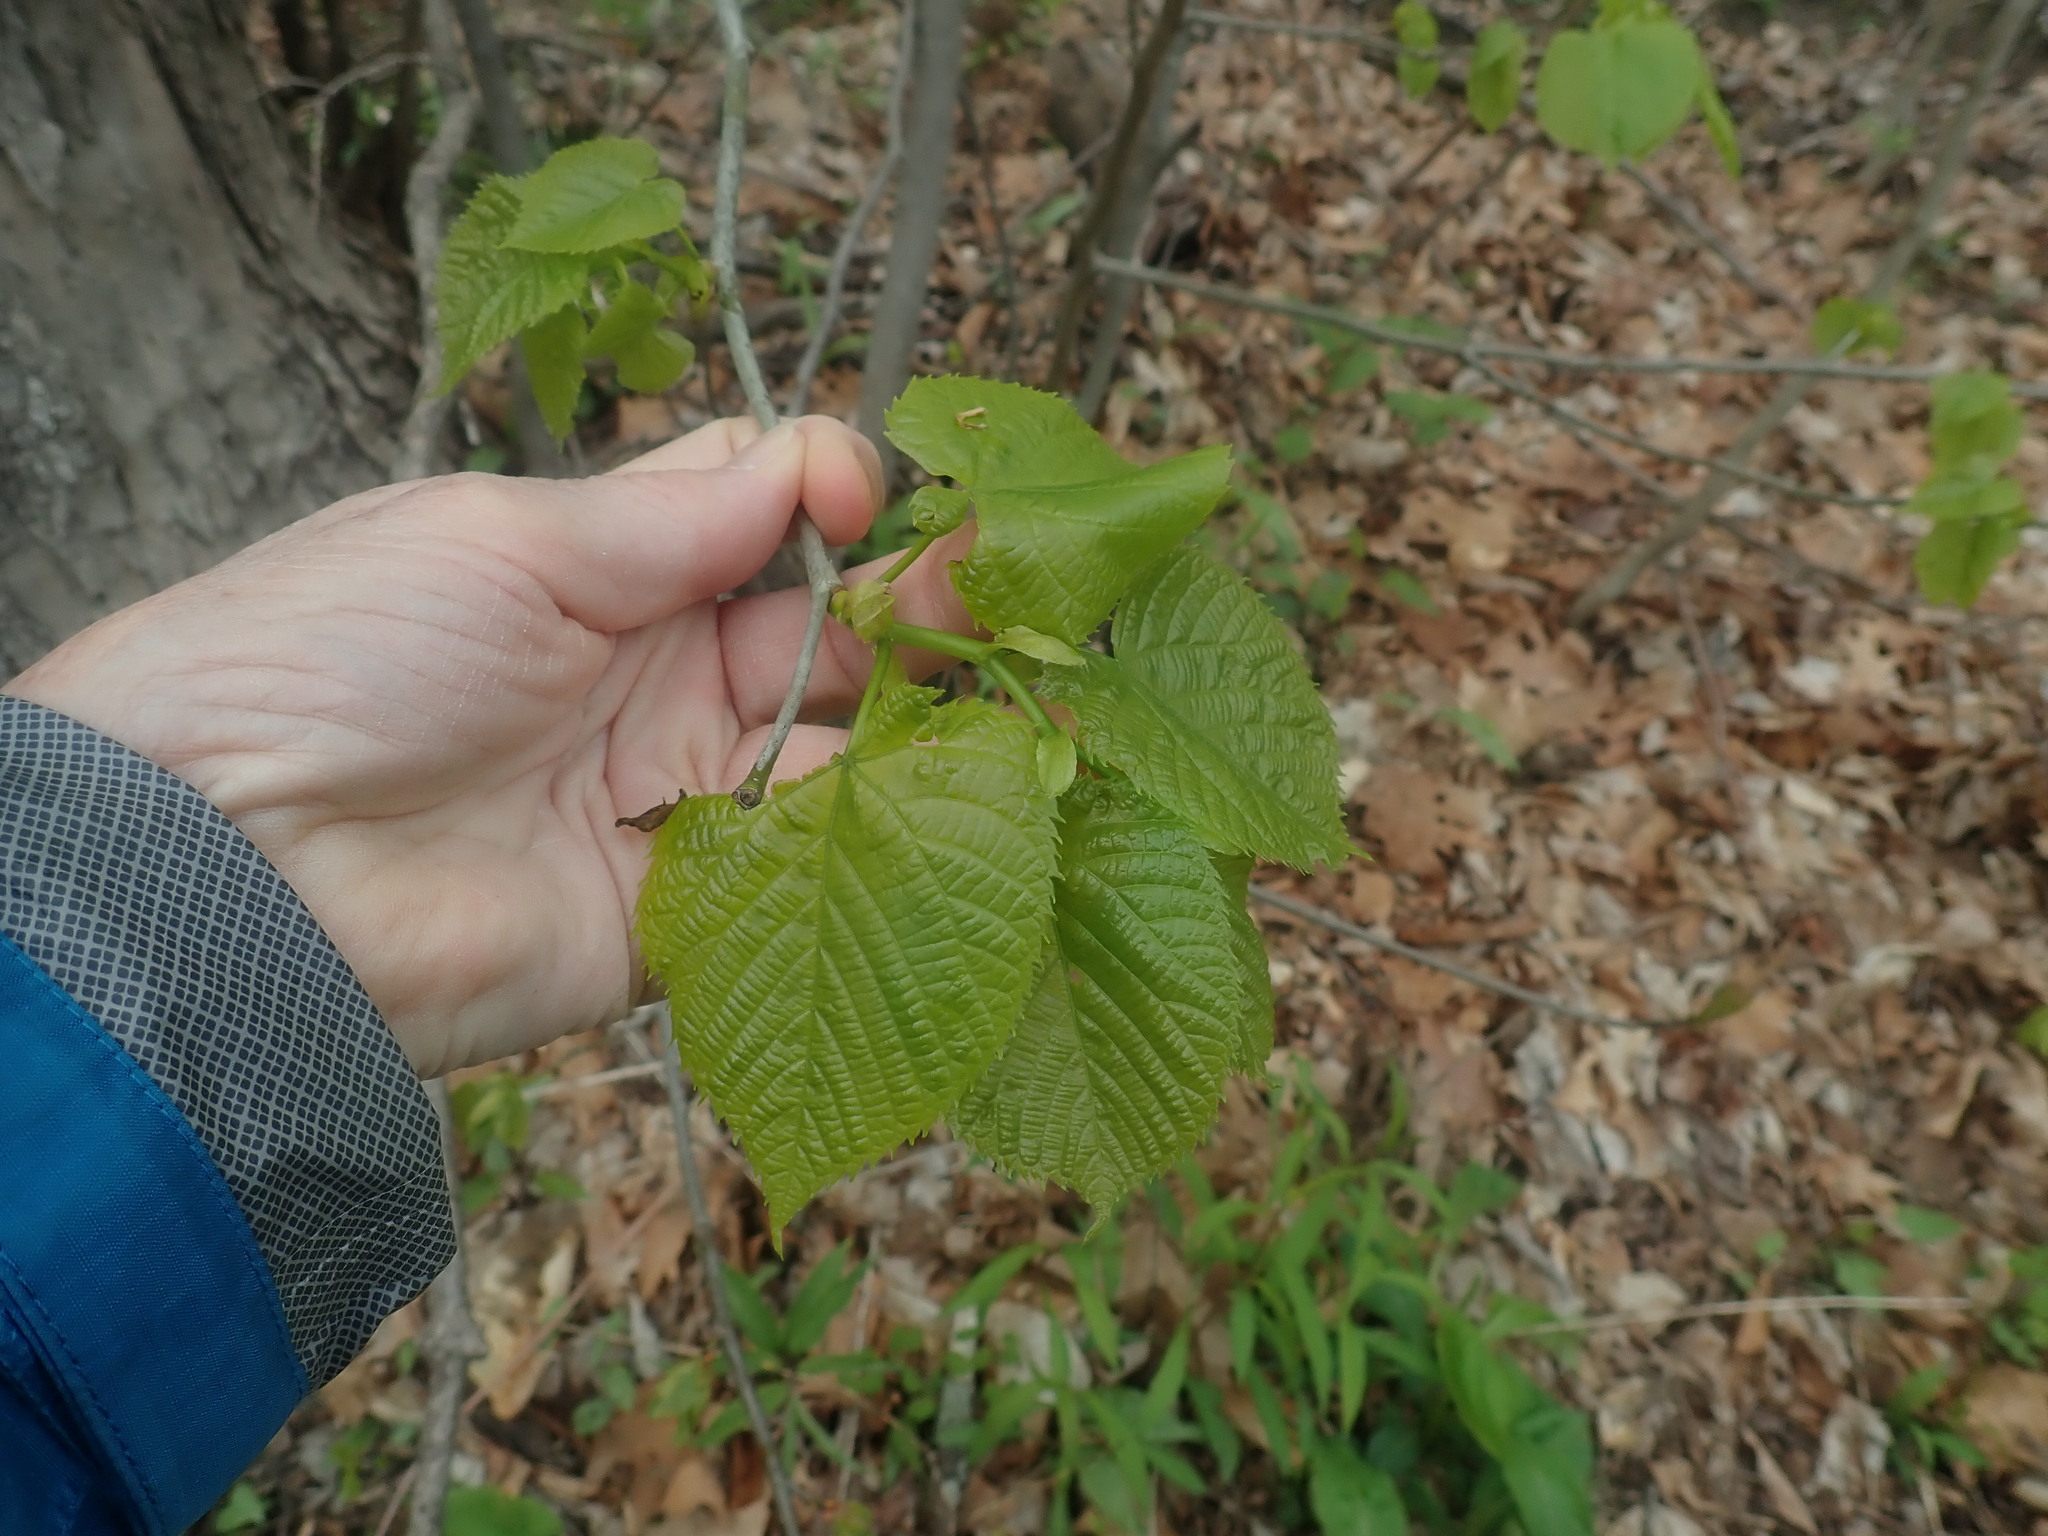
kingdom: Plantae
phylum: Tracheophyta
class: Magnoliopsida
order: Malvales
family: Malvaceae
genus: Tilia
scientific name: Tilia americana
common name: Basswood
